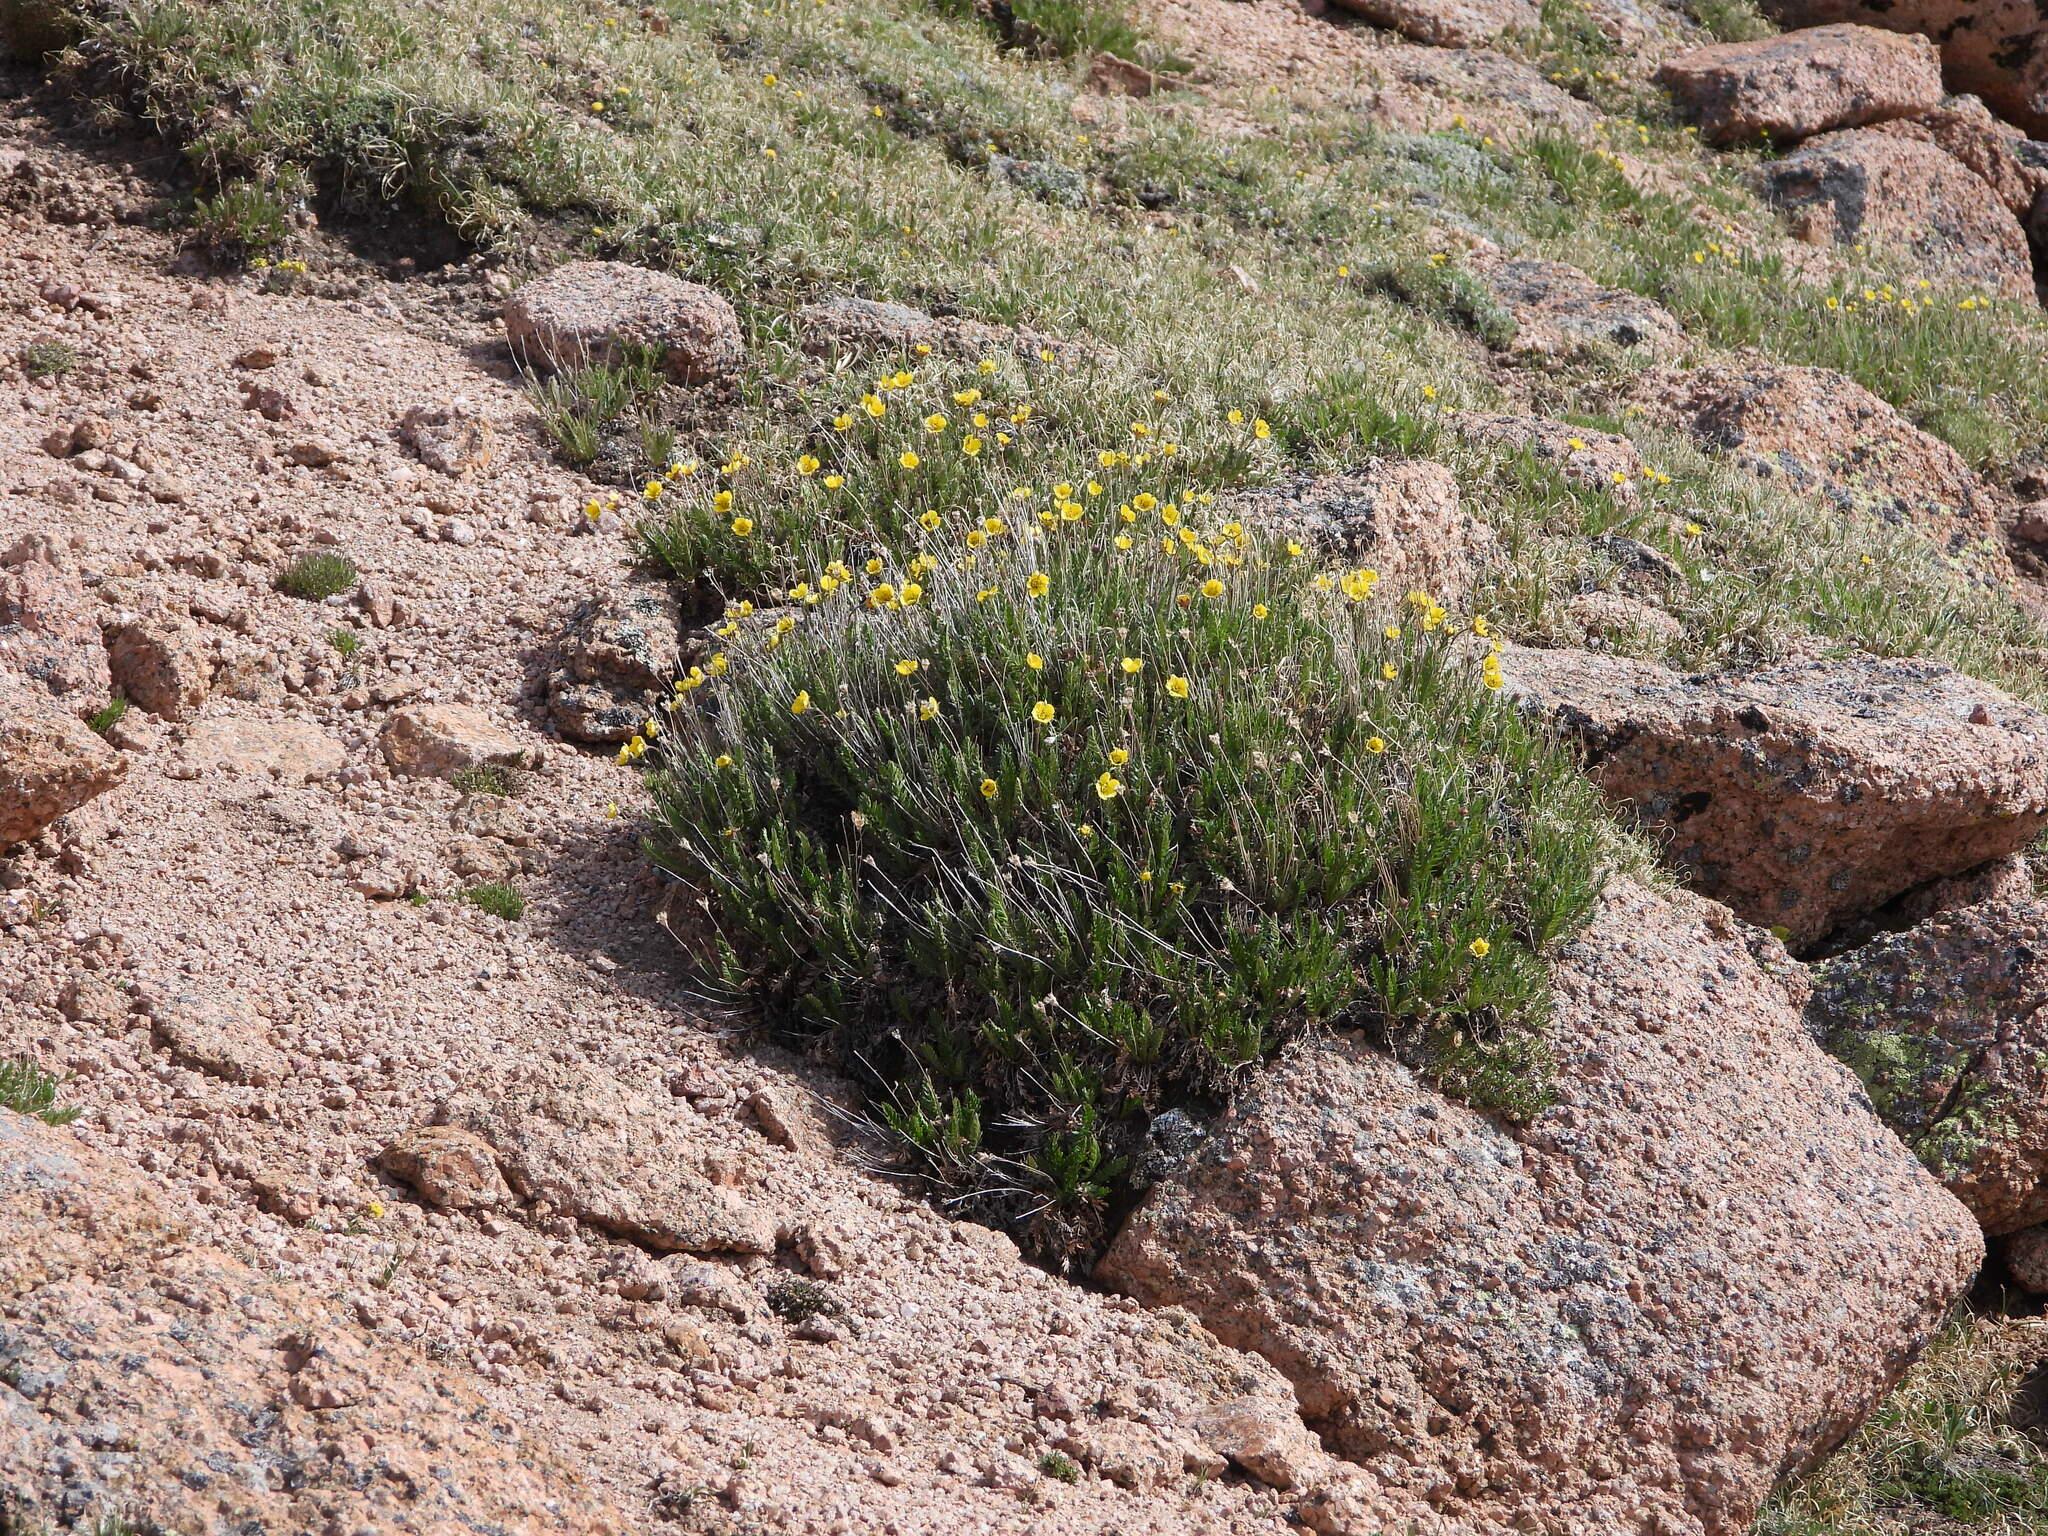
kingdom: Plantae
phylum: Tracheophyta
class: Magnoliopsida
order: Rosales
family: Rosaceae
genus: Geum
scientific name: Geum rossii
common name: Alpine avens
